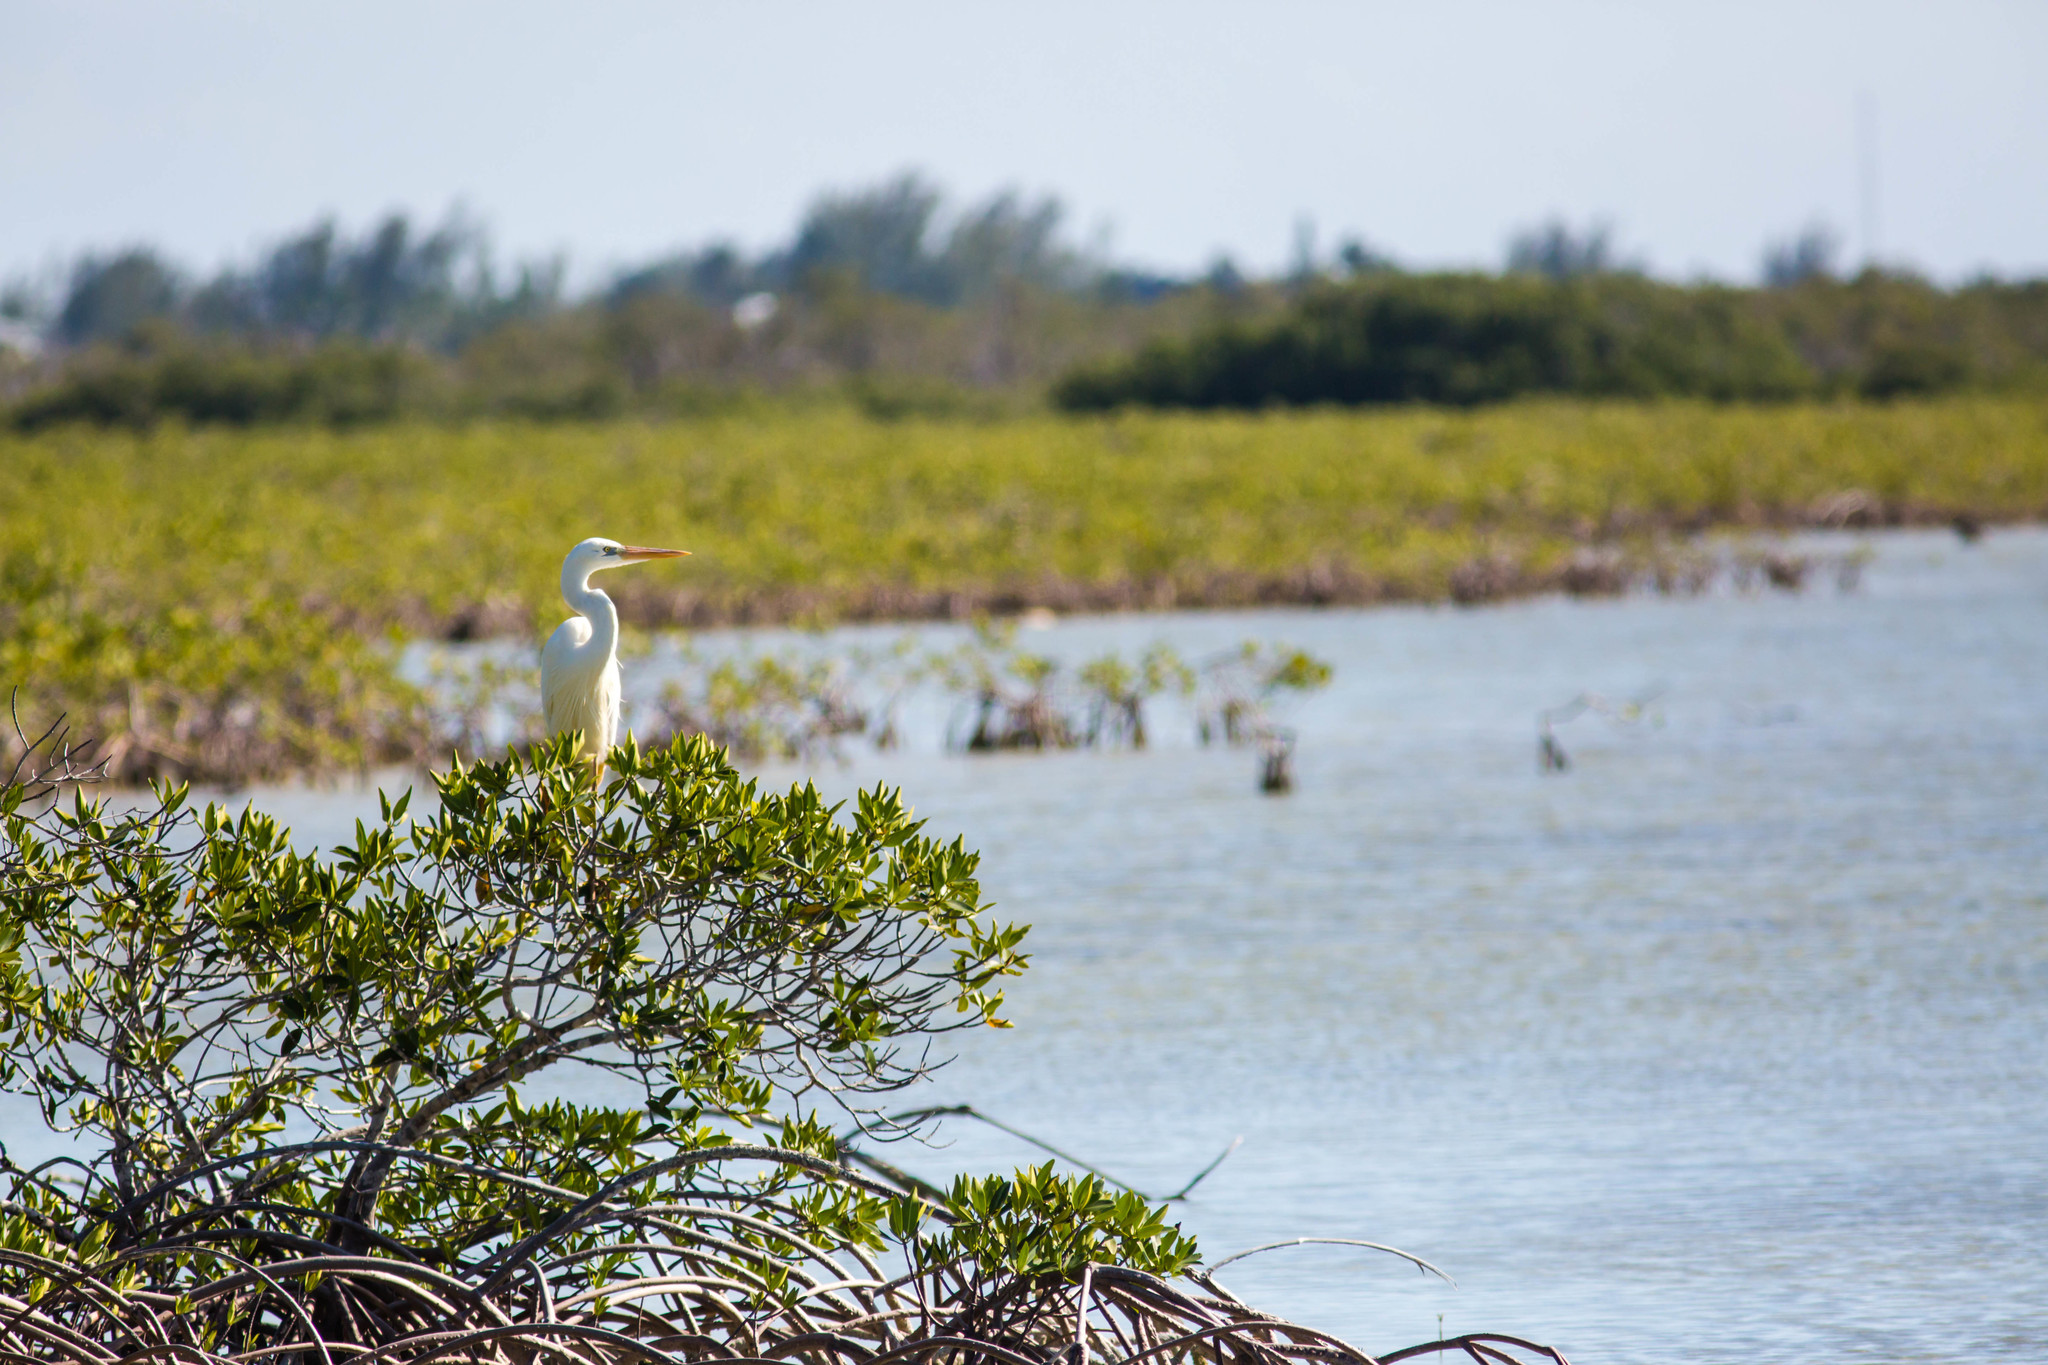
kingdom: Animalia
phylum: Chordata
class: Aves
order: Pelecaniformes
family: Ardeidae
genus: Ardea
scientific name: Ardea herodias
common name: Great blue heron
